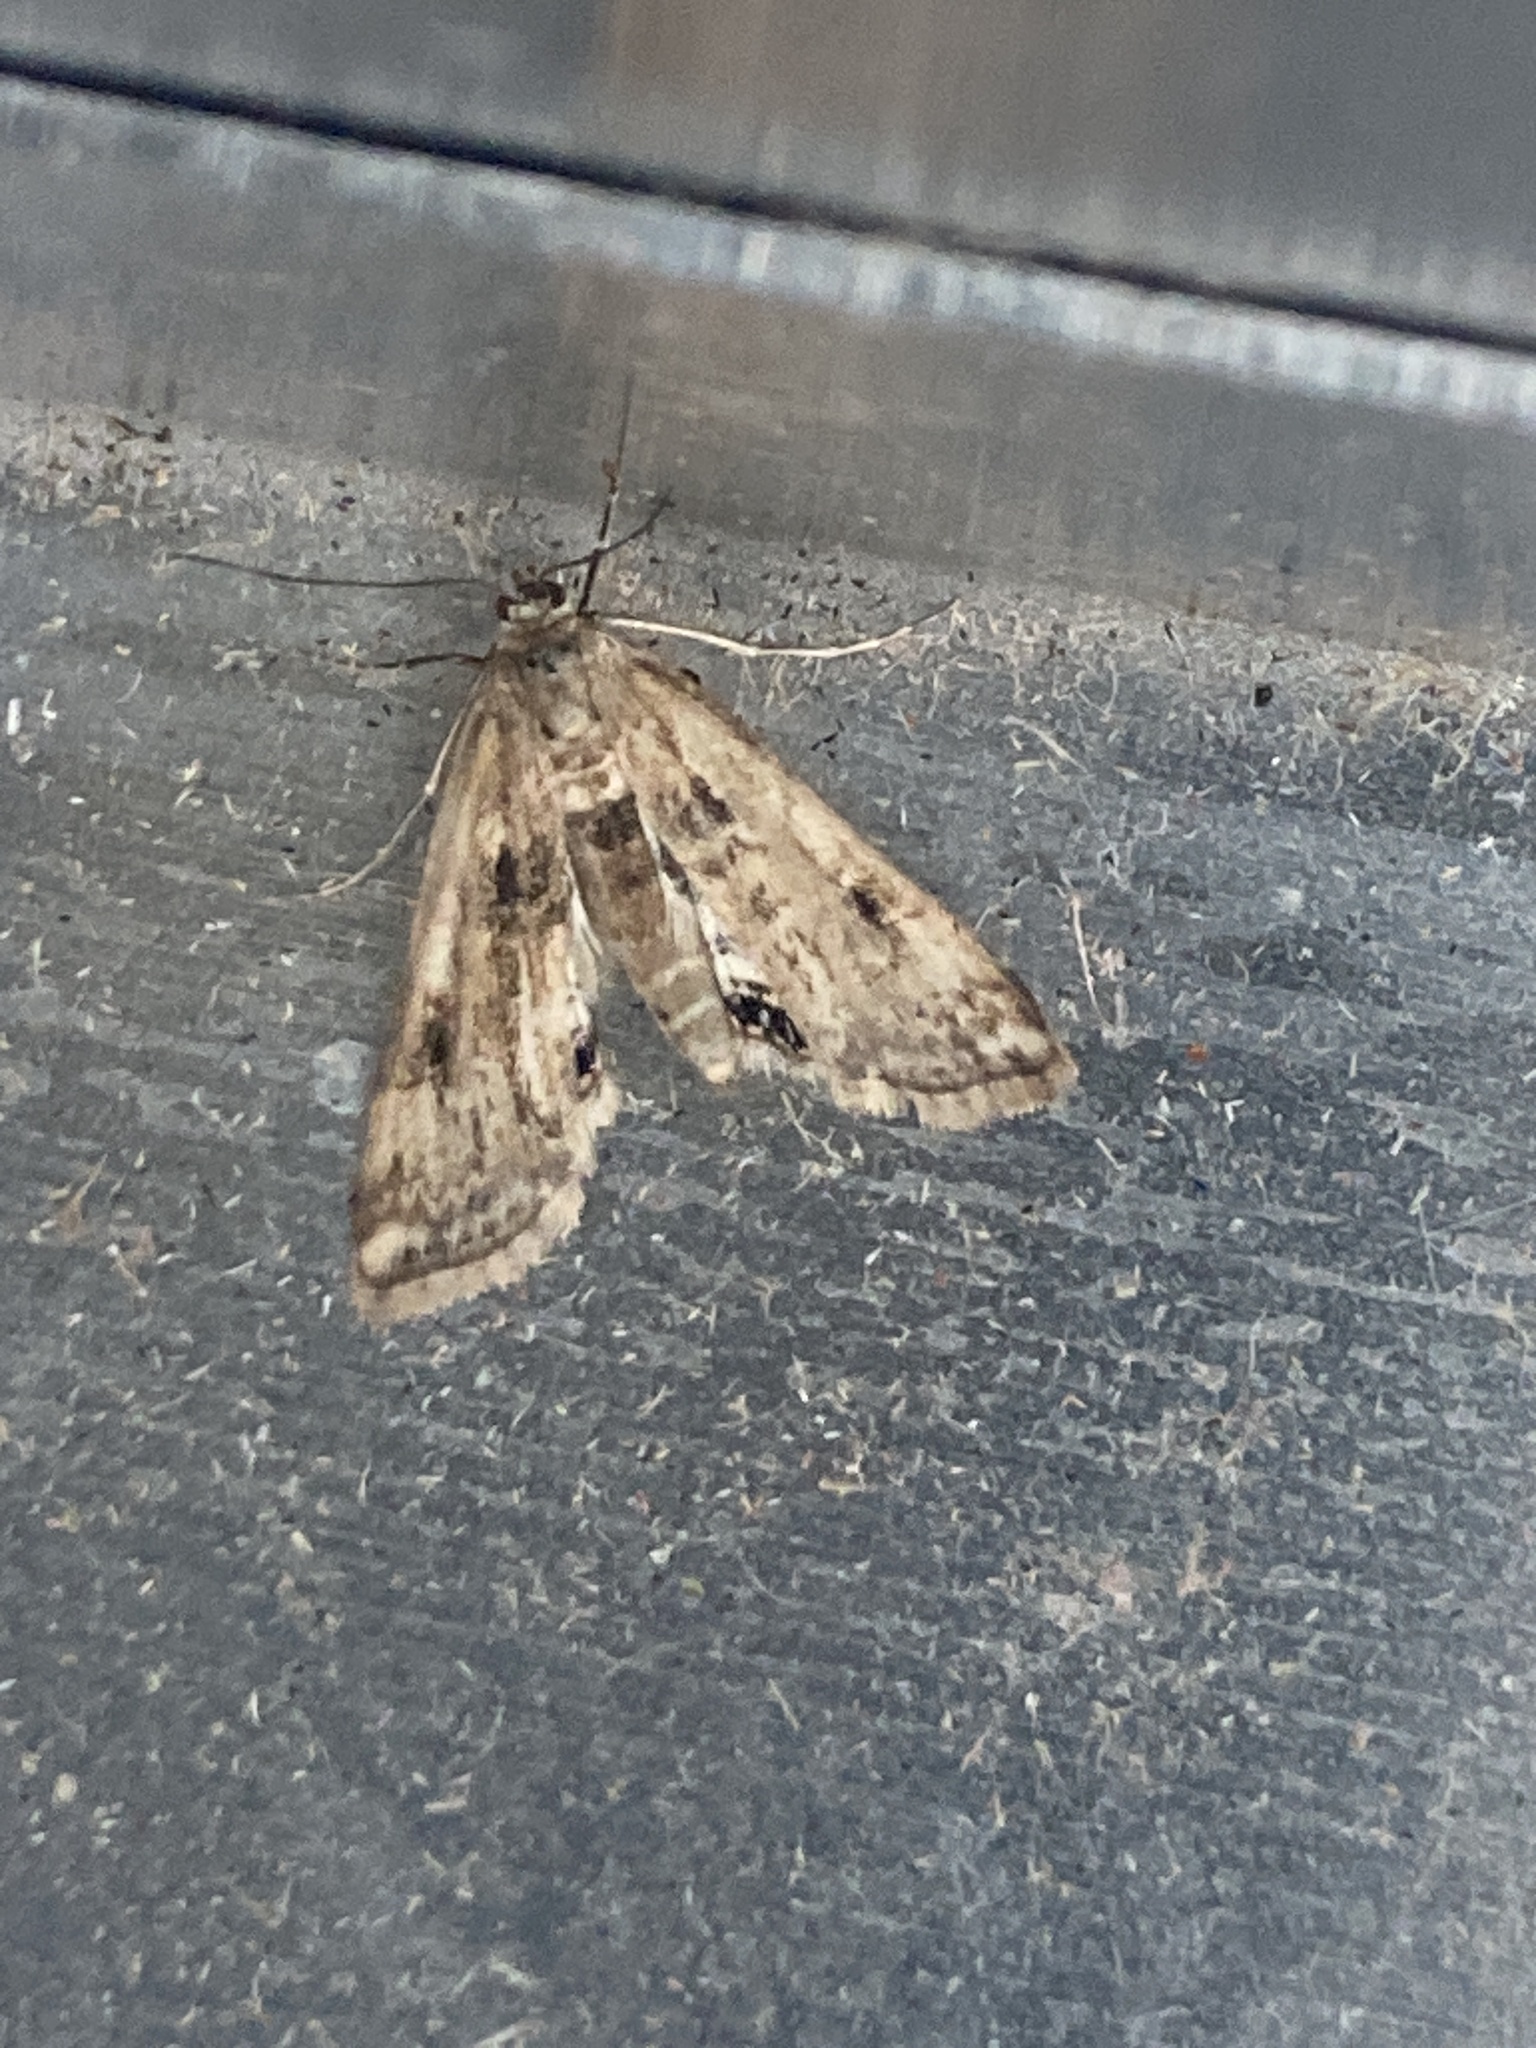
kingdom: Animalia
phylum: Arthropoda
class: Insecta
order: Lepidoptera
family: Crambidae
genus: Cataclysta
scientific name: Cataclysta lemnata
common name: Small china-mark
